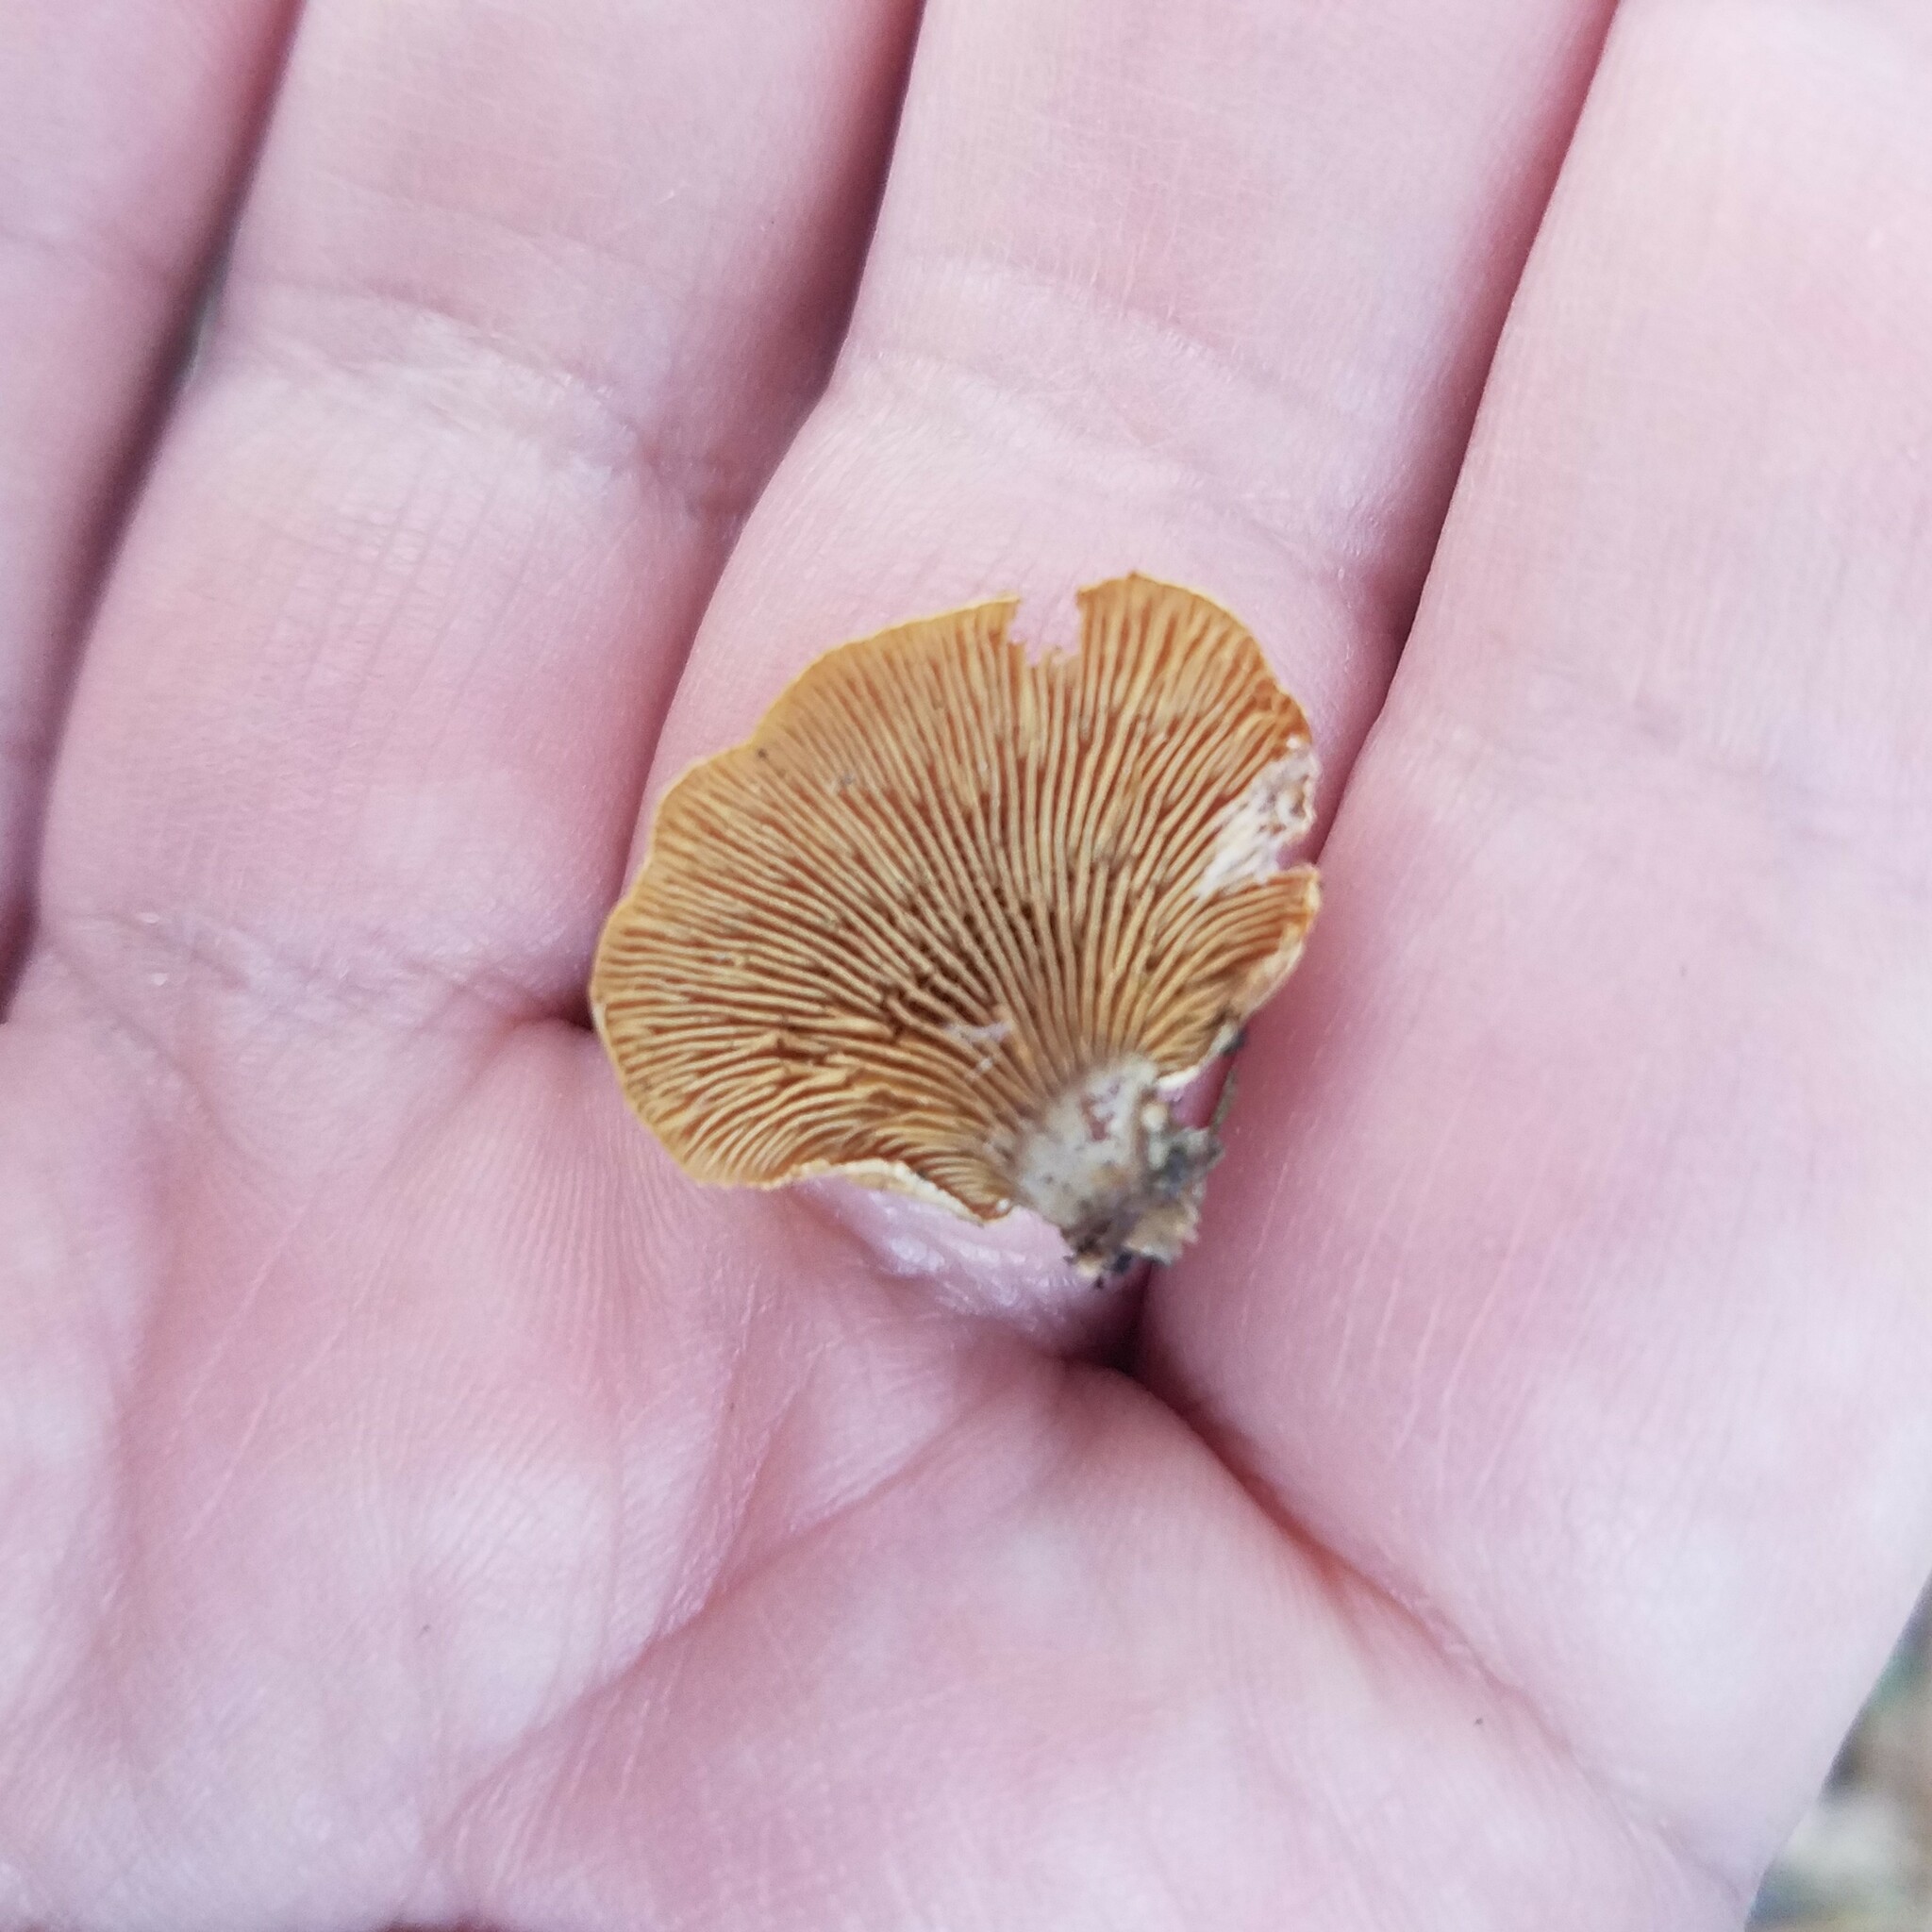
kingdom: Fungi
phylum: Basidiomycota
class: Agaricomycetes
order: Agaricales
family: Mycenaceae
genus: Panellus
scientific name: Panellus stipticus
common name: Bitter oysterling
